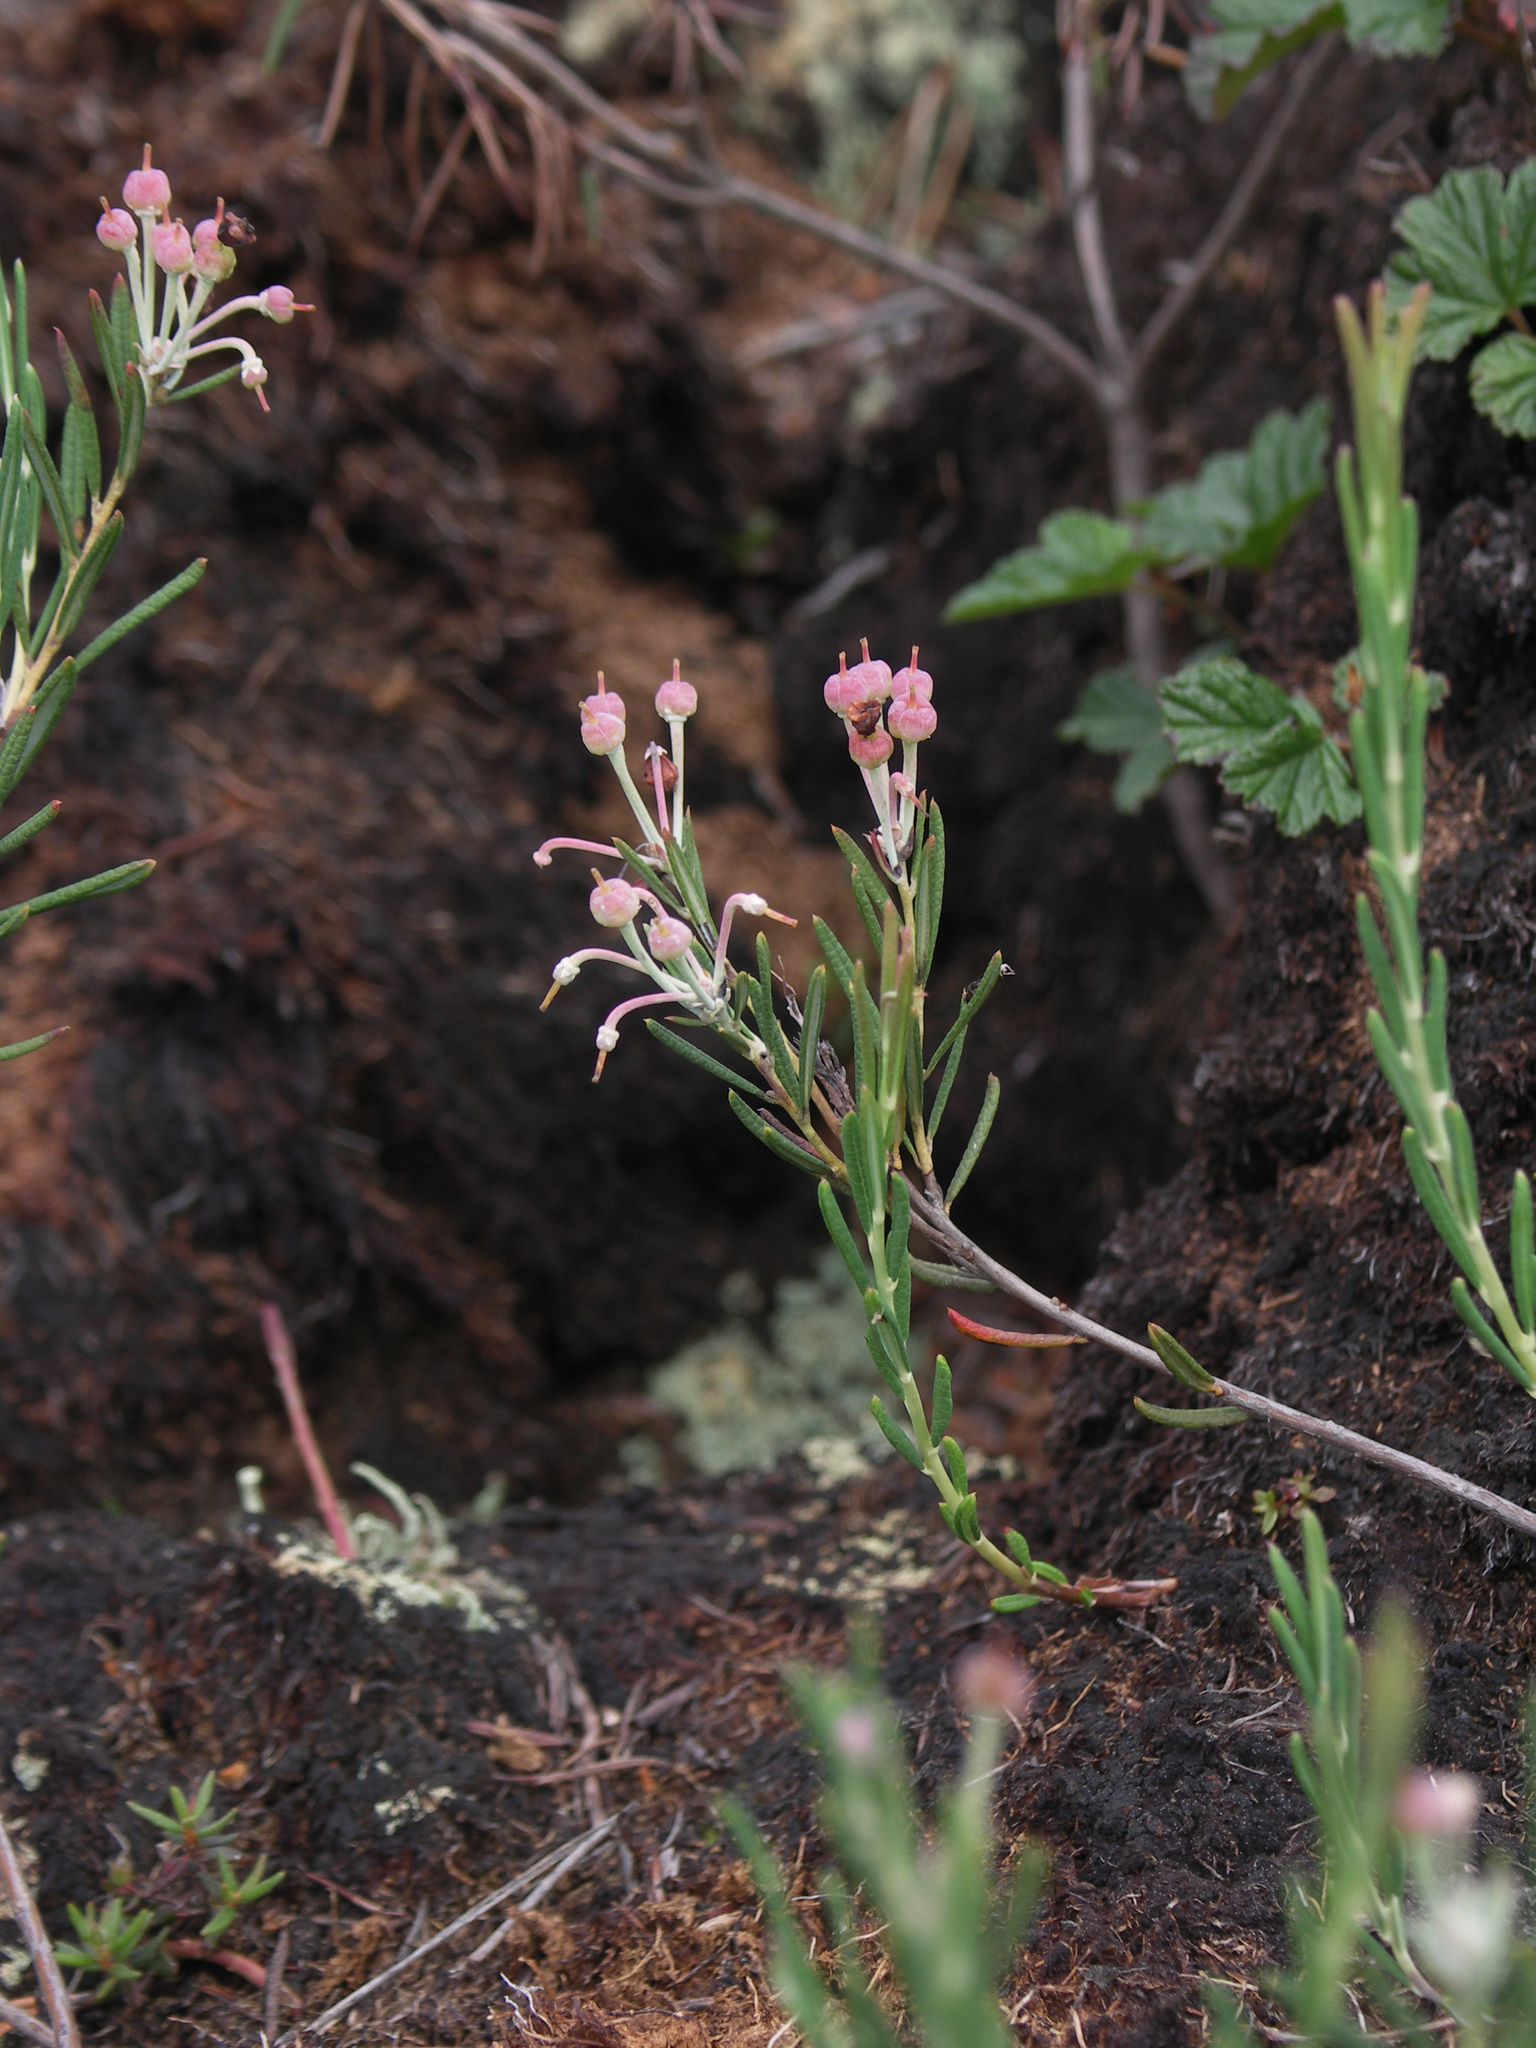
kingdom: Plantae
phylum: Tracheophyta
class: Magnoliopsida
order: Ericales
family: Ericaceae
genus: Andromeda
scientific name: Andromeda polifolia
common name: Bog-rosemary
